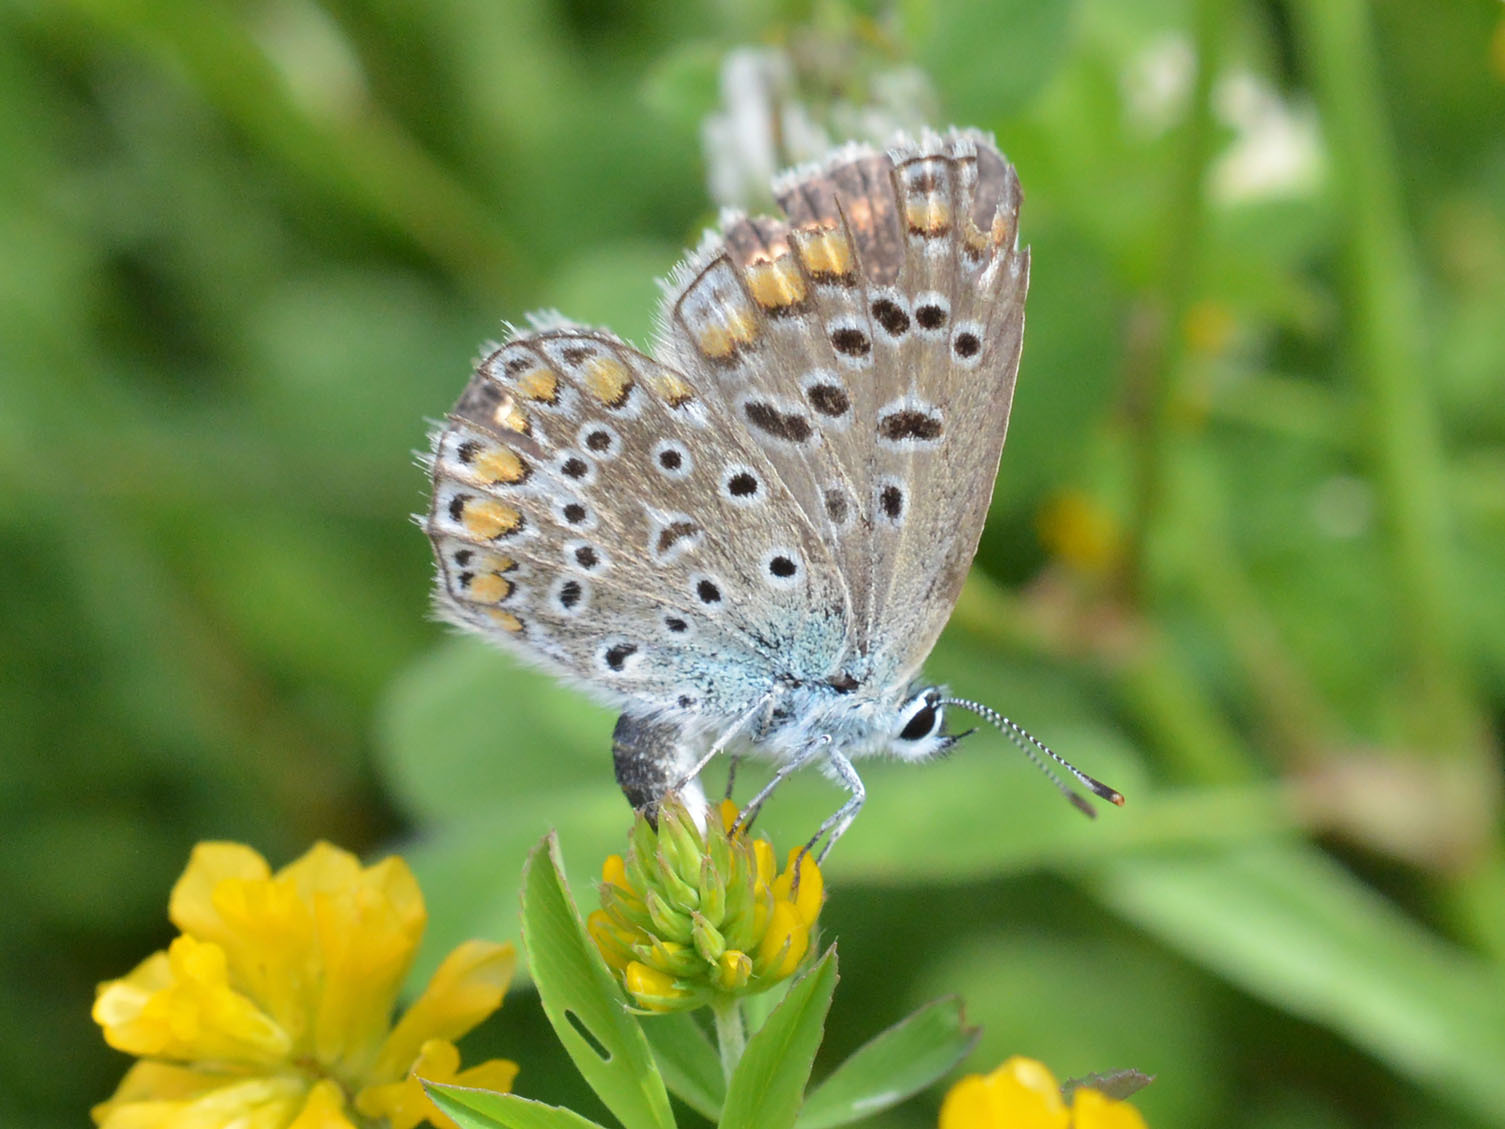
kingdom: Animalia
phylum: Arthropoda
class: Insecta
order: Lepidoptera
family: Lycaenidae
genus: Polyommatus
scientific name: Polyommatus icarus
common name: Common blue
